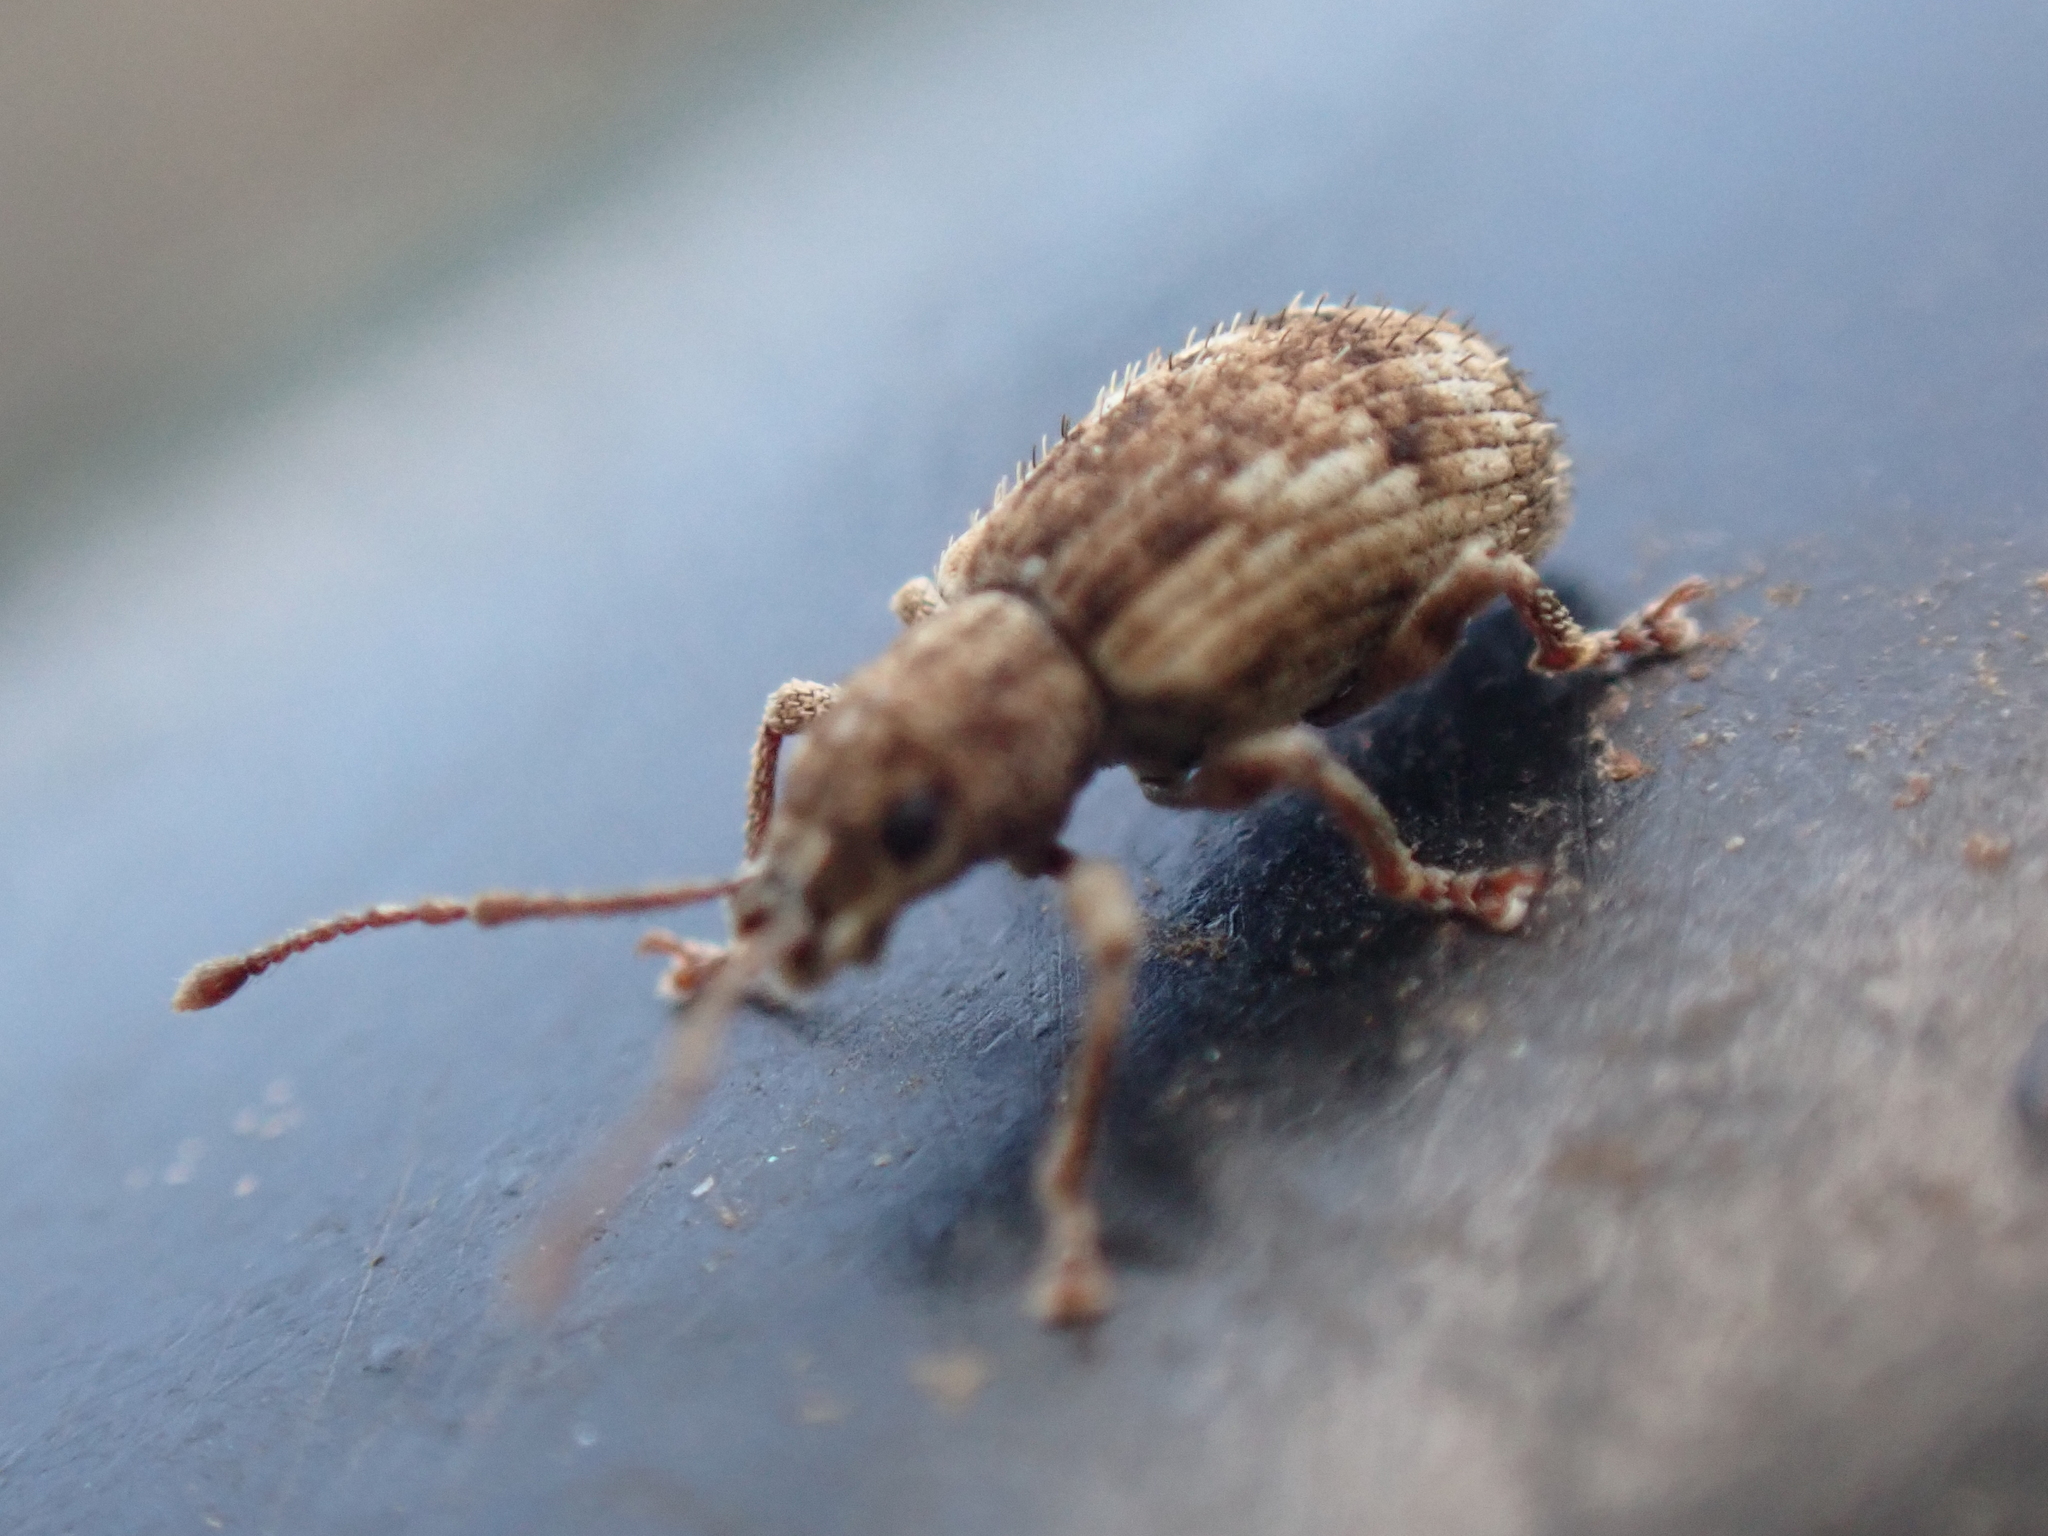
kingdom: Animalia
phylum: Arthropoda
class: Insecta
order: Coleoptera
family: Curculionidae
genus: Pseudoedophrys
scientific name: Pseudoedophrys hilleri
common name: Weevil
